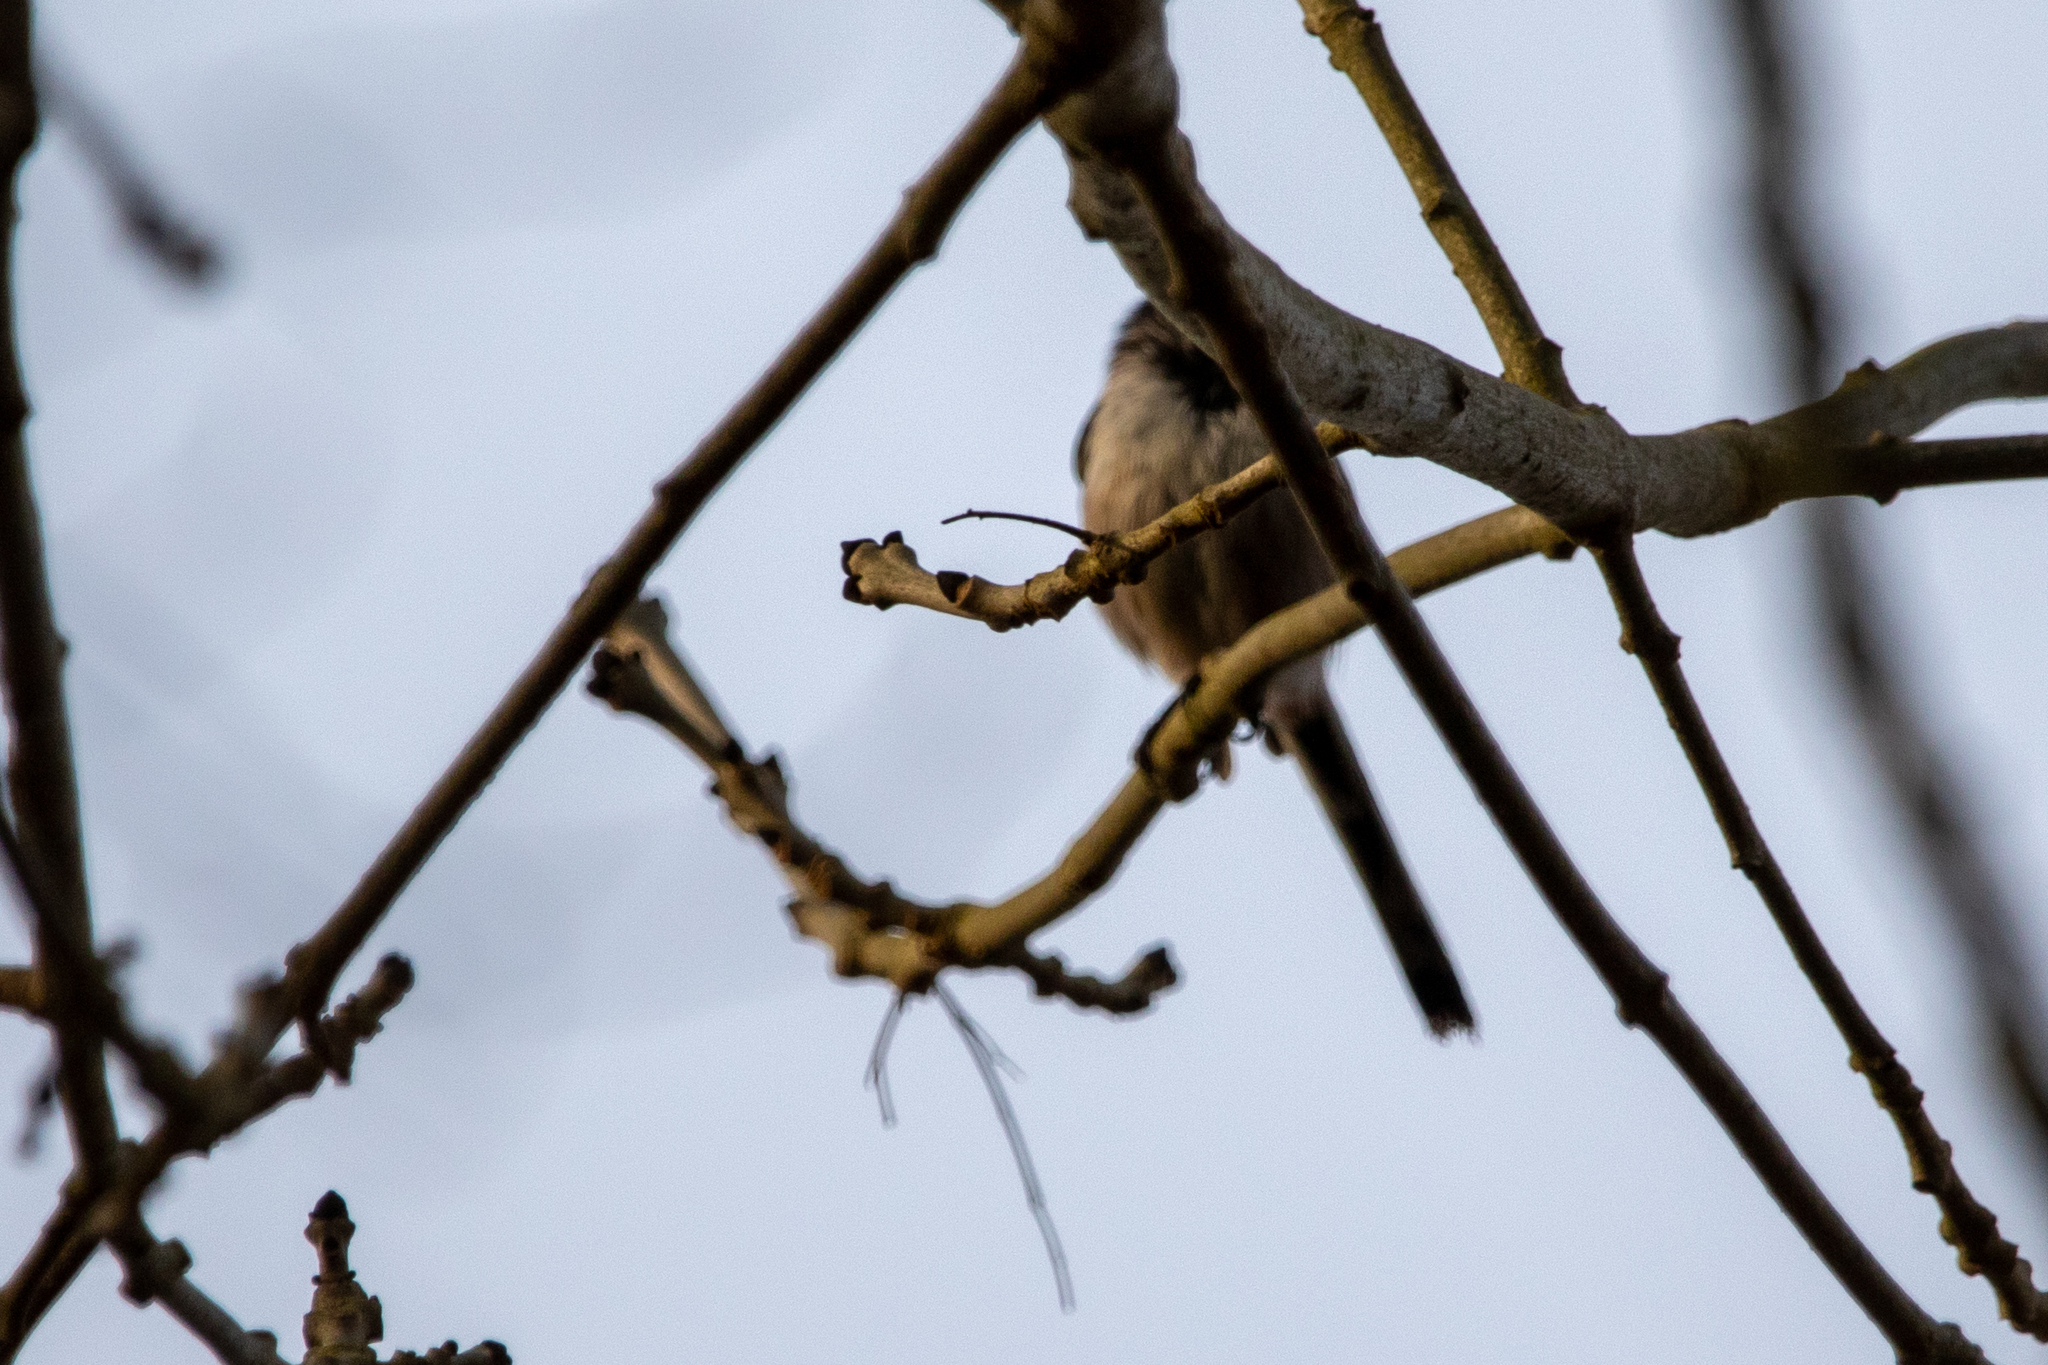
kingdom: Animalia
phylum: Chordata
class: Aves
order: Passeriformes
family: Aegithalidae
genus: Aegithalos
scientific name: Aegithalos caudatus
